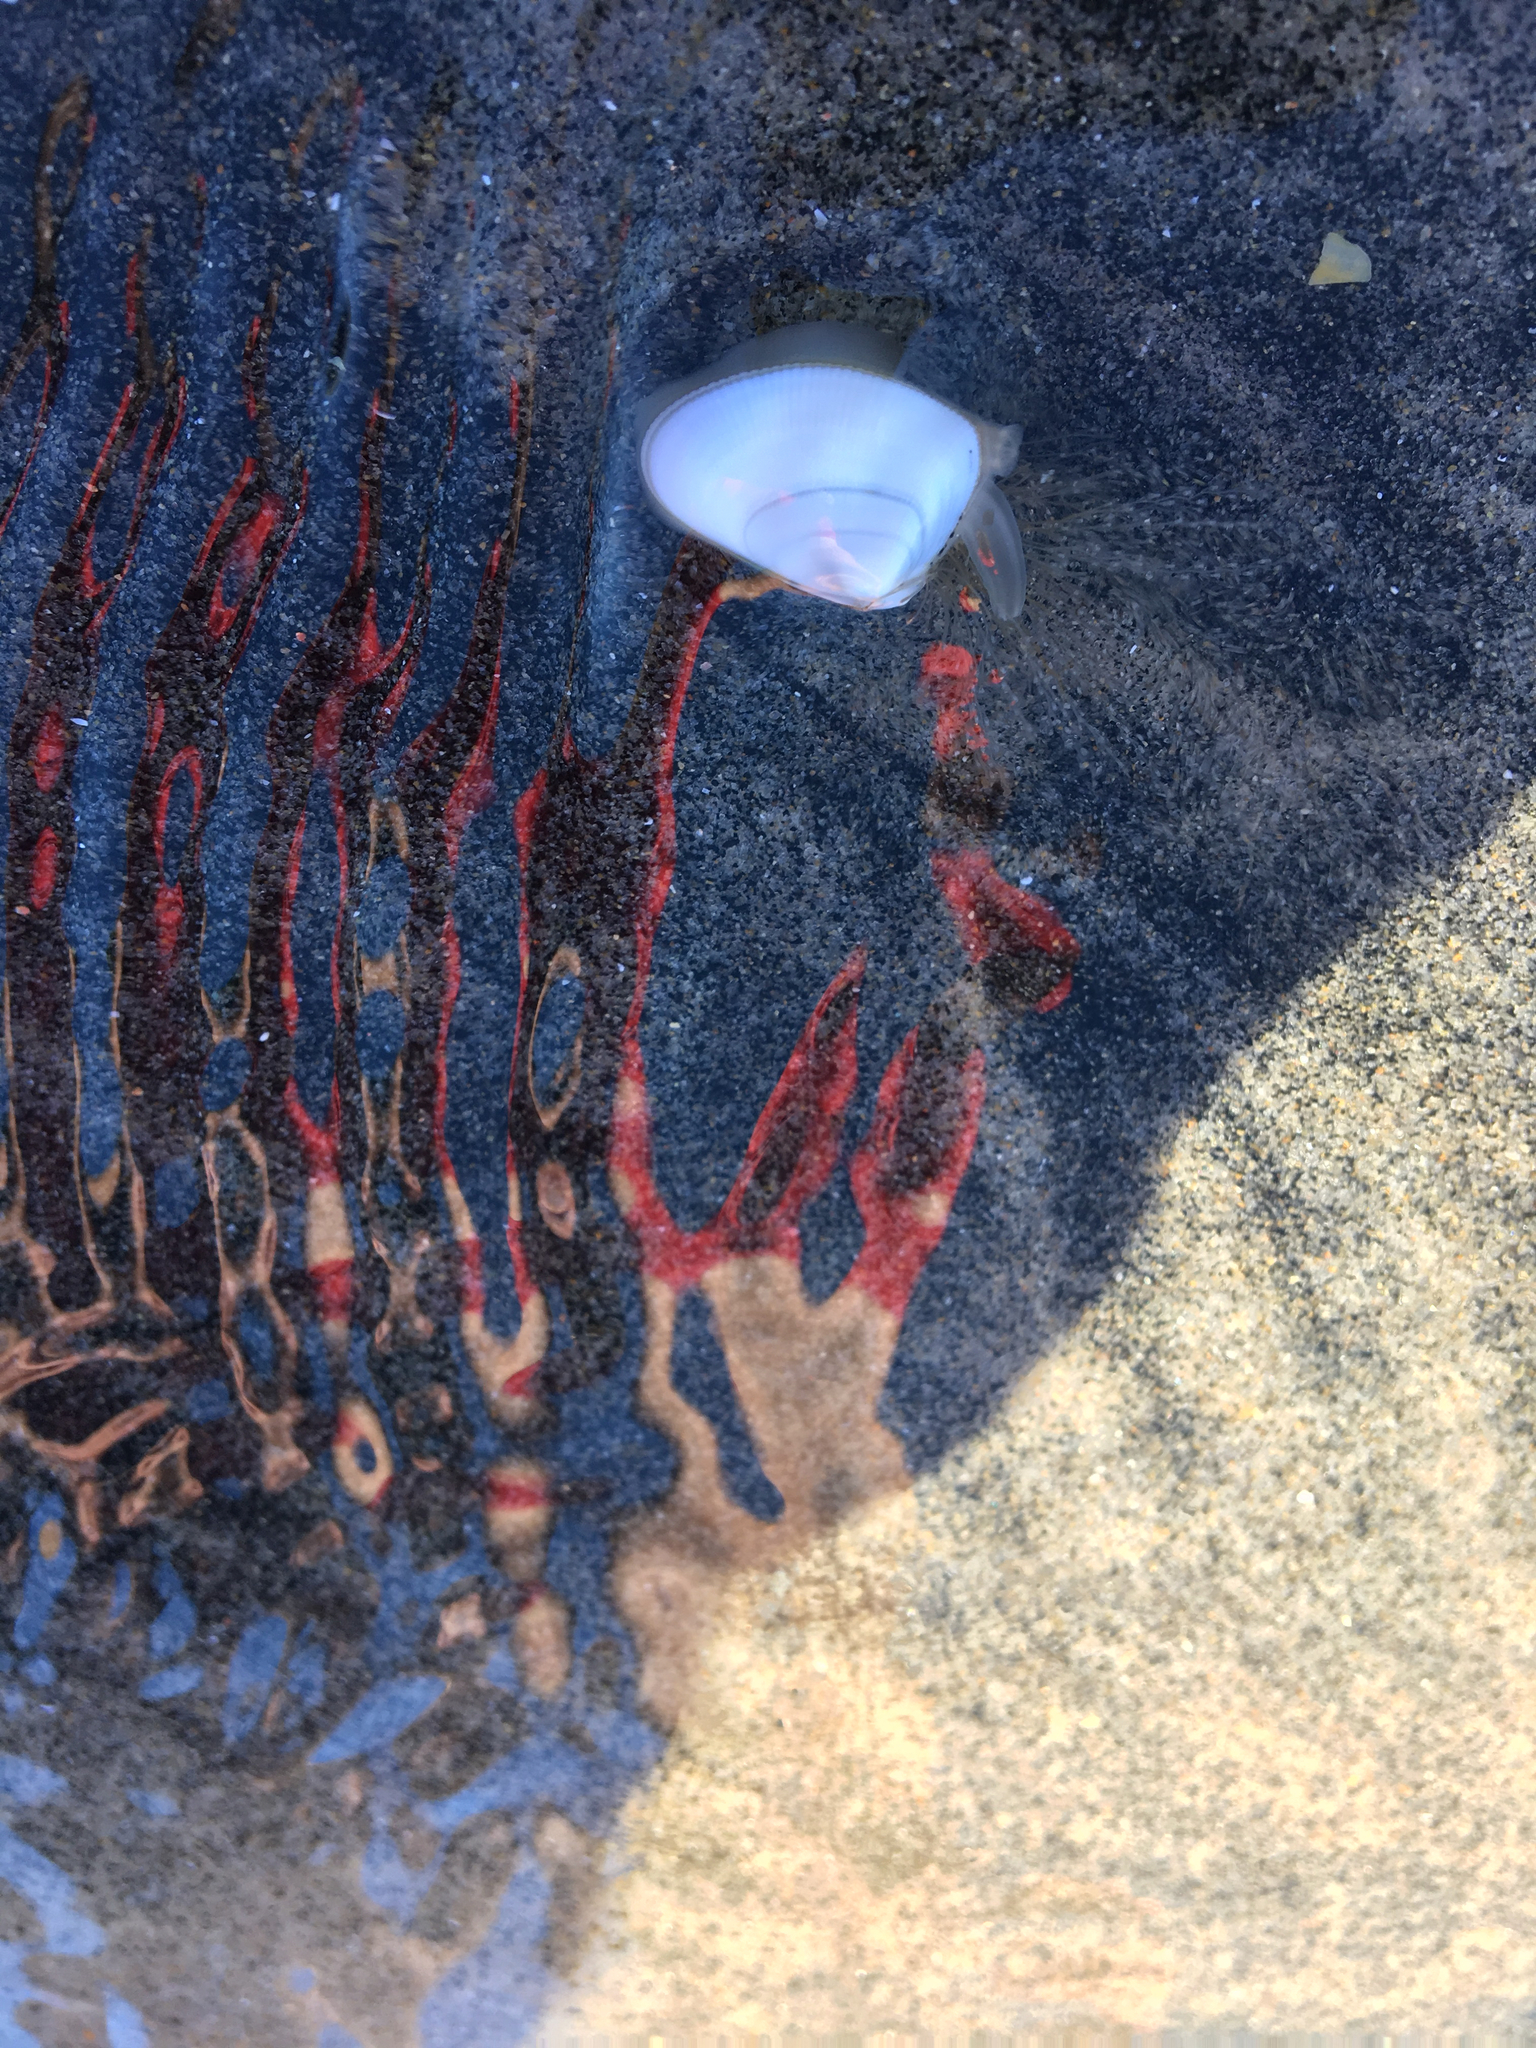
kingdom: Animalia
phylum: Mollusca
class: Bivalvia
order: Cardiida
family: Donacidae
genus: Donax
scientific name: Donax gouldii
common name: Gould beanclam
